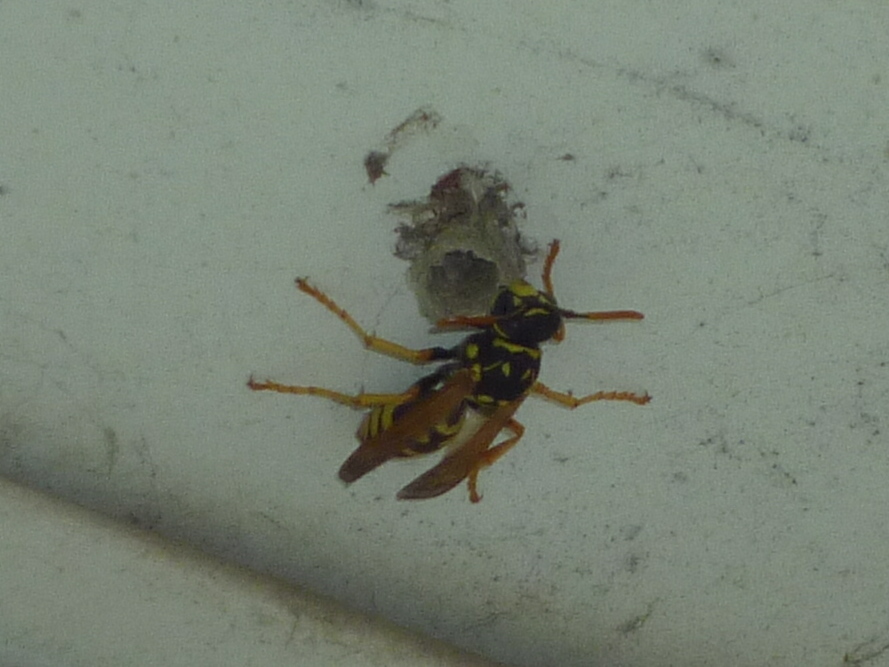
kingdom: Animalia
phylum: Arthropoda
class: Insecta
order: Hymenoptera
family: Eumenidae
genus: Polistes
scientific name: Polistes dominula
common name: Paper wasp
